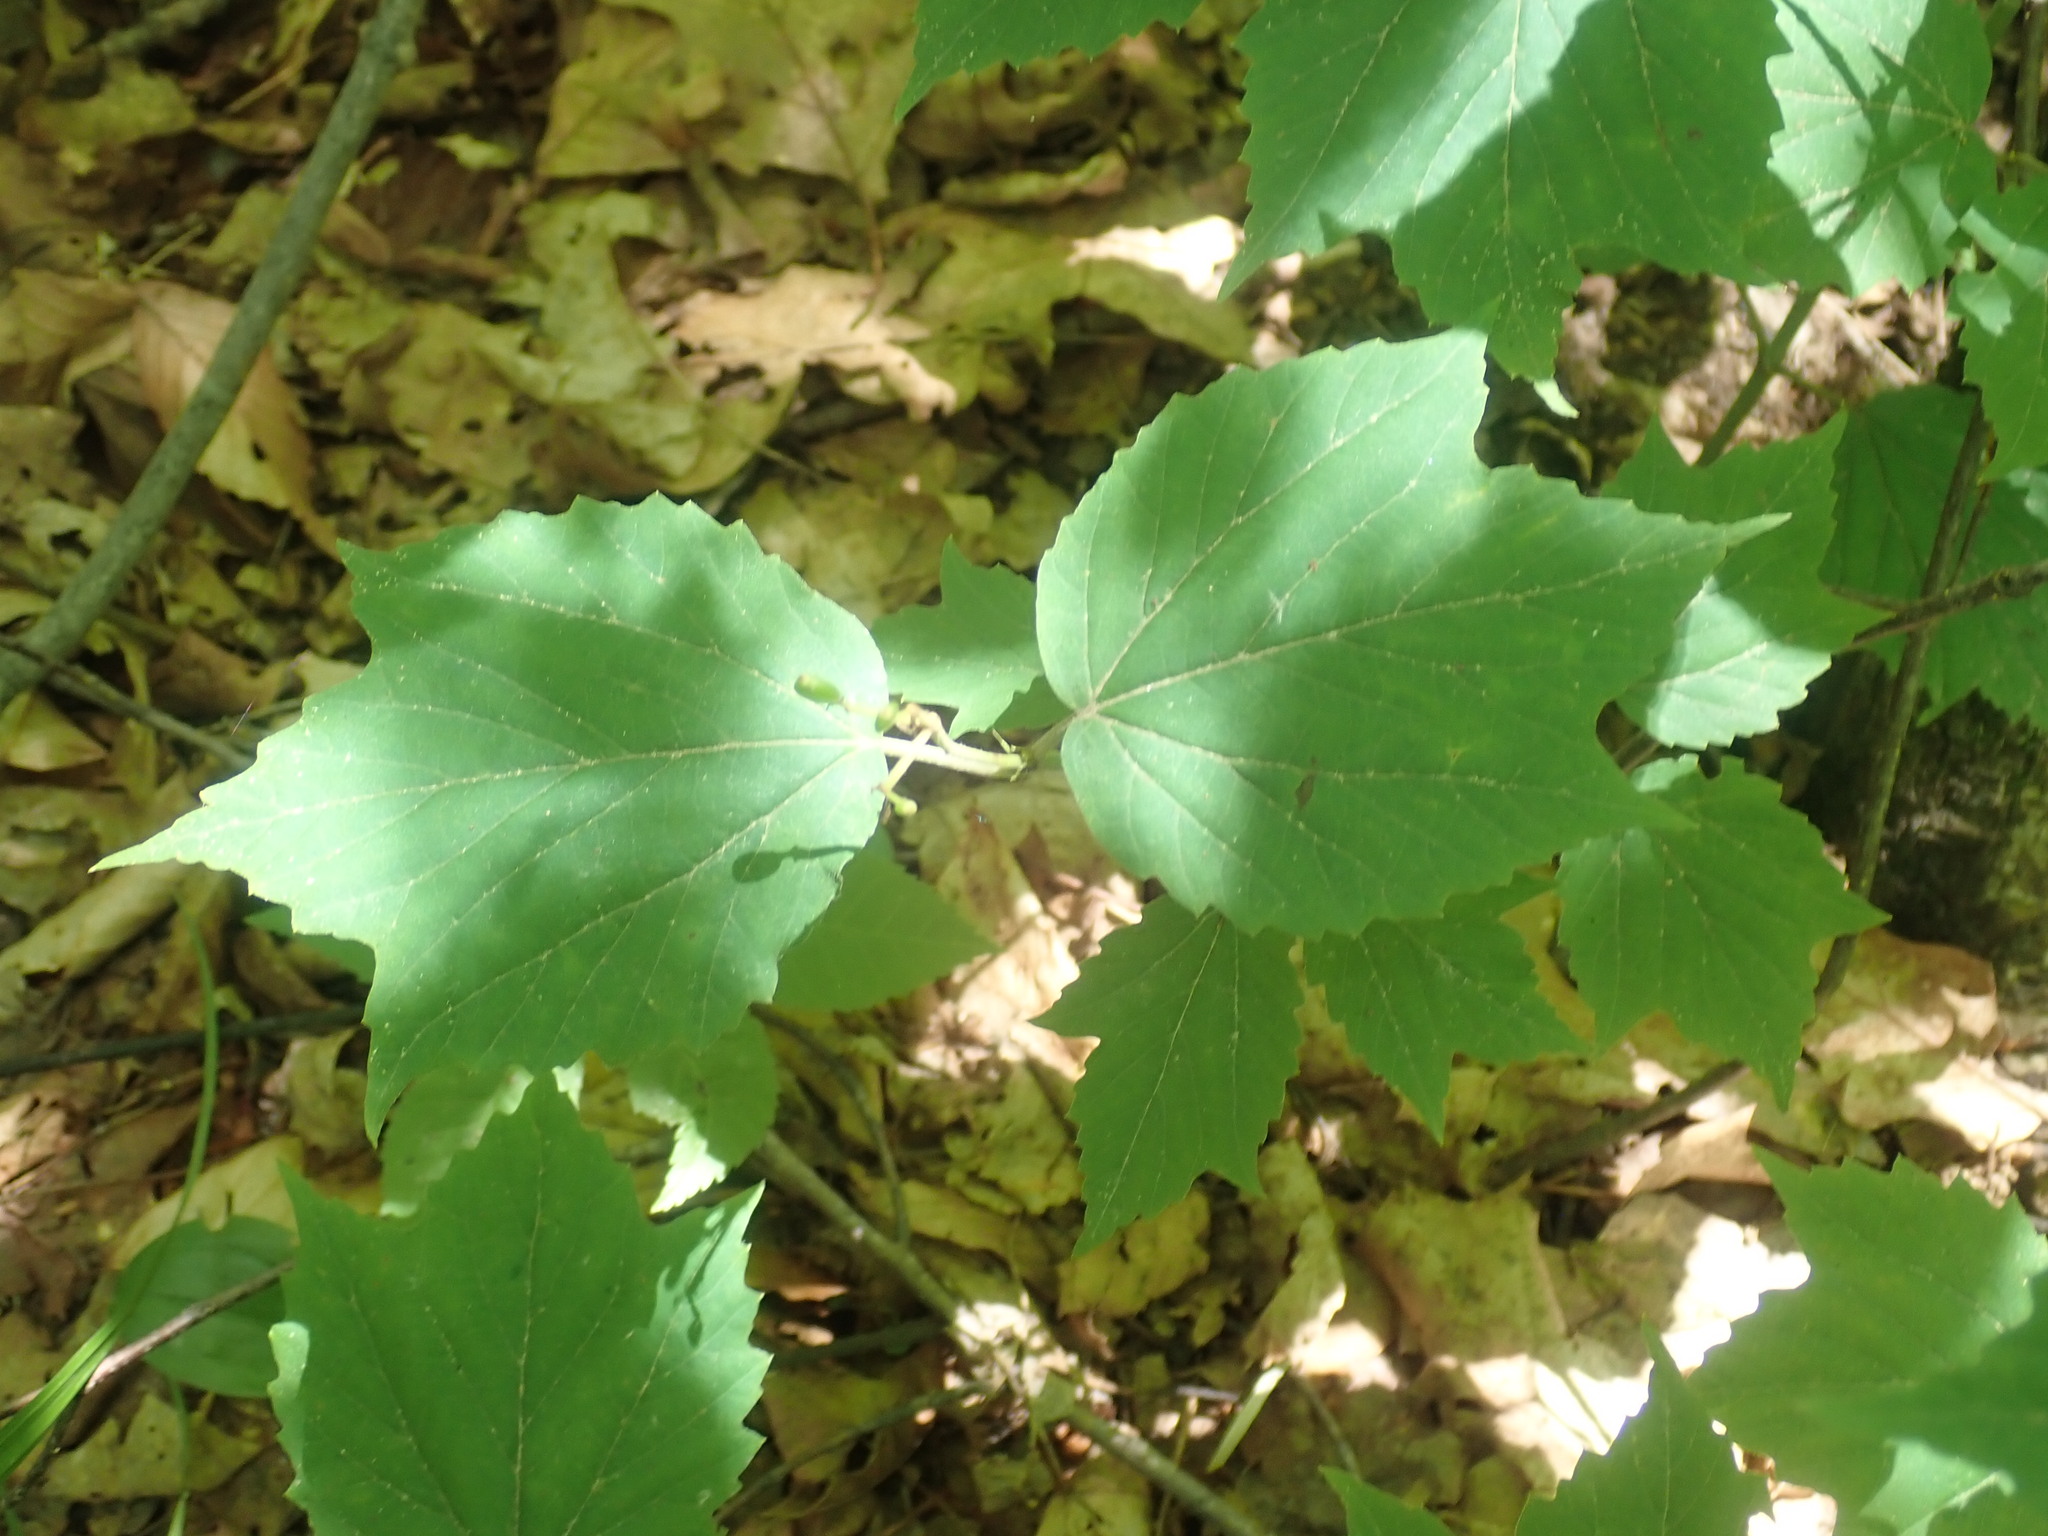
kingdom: Plantae
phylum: Tracheophyta
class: Magnoliopsida
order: Dipsacales
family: Viburnaceae
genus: Viburnum
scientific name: Viburnum acerifolium
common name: Dockmackie
